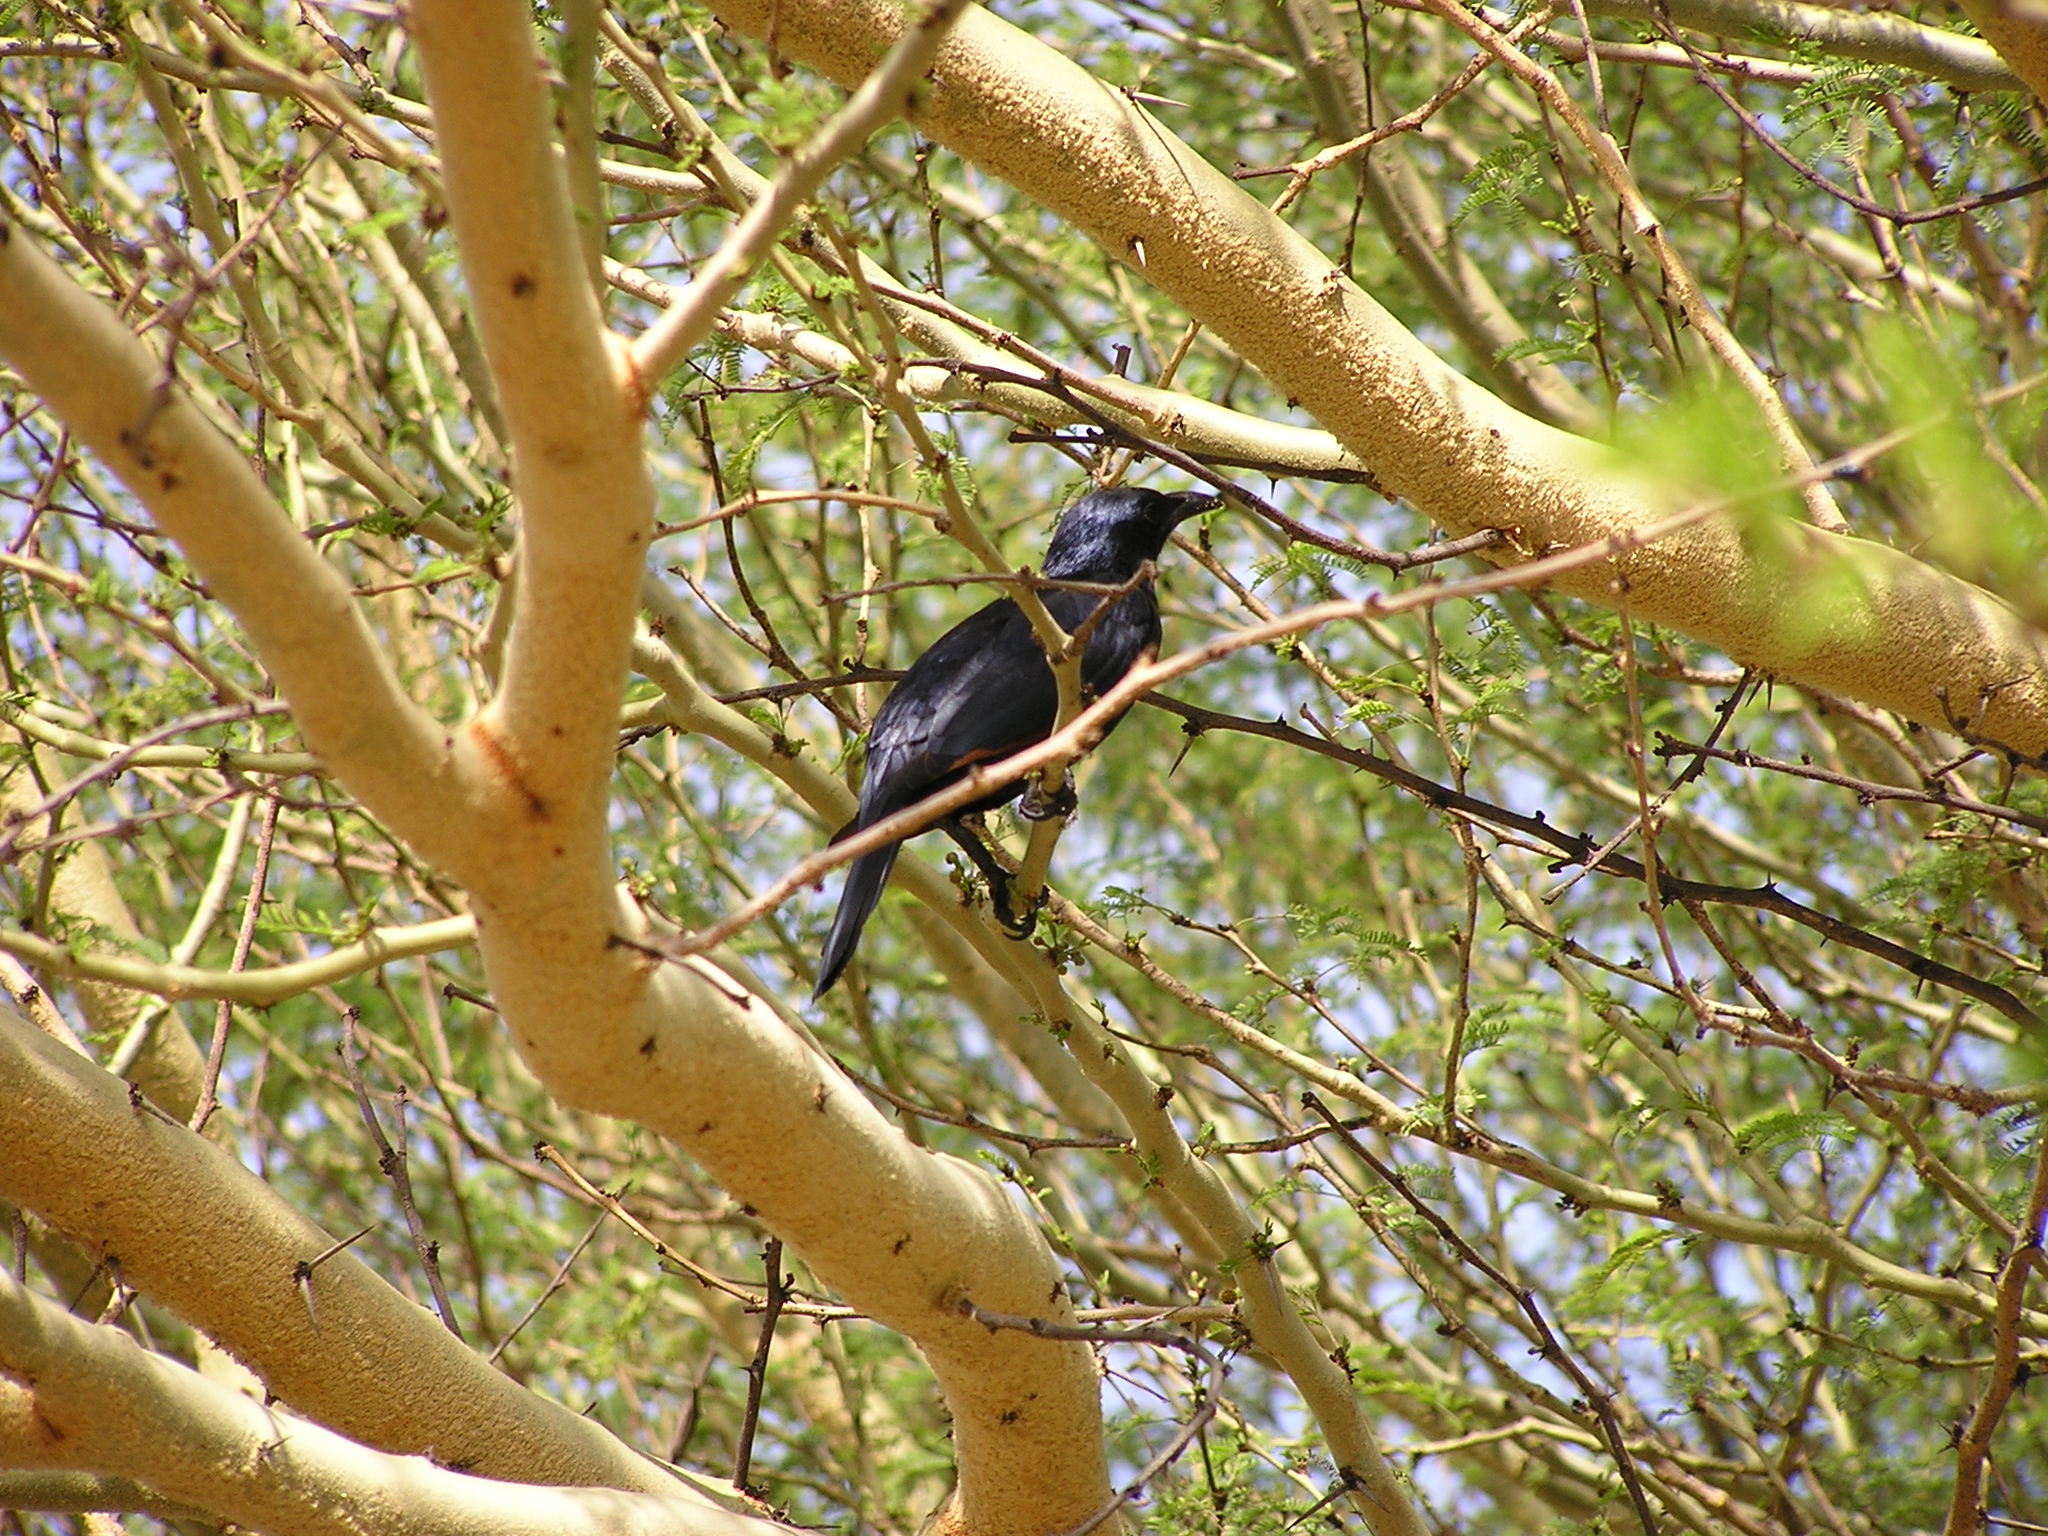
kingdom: Animalia
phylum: Chordata
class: Aves
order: Passeriformes
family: Sturnidae
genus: Onychognathus
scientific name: Onychognathus morio
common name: Red-winged starling
